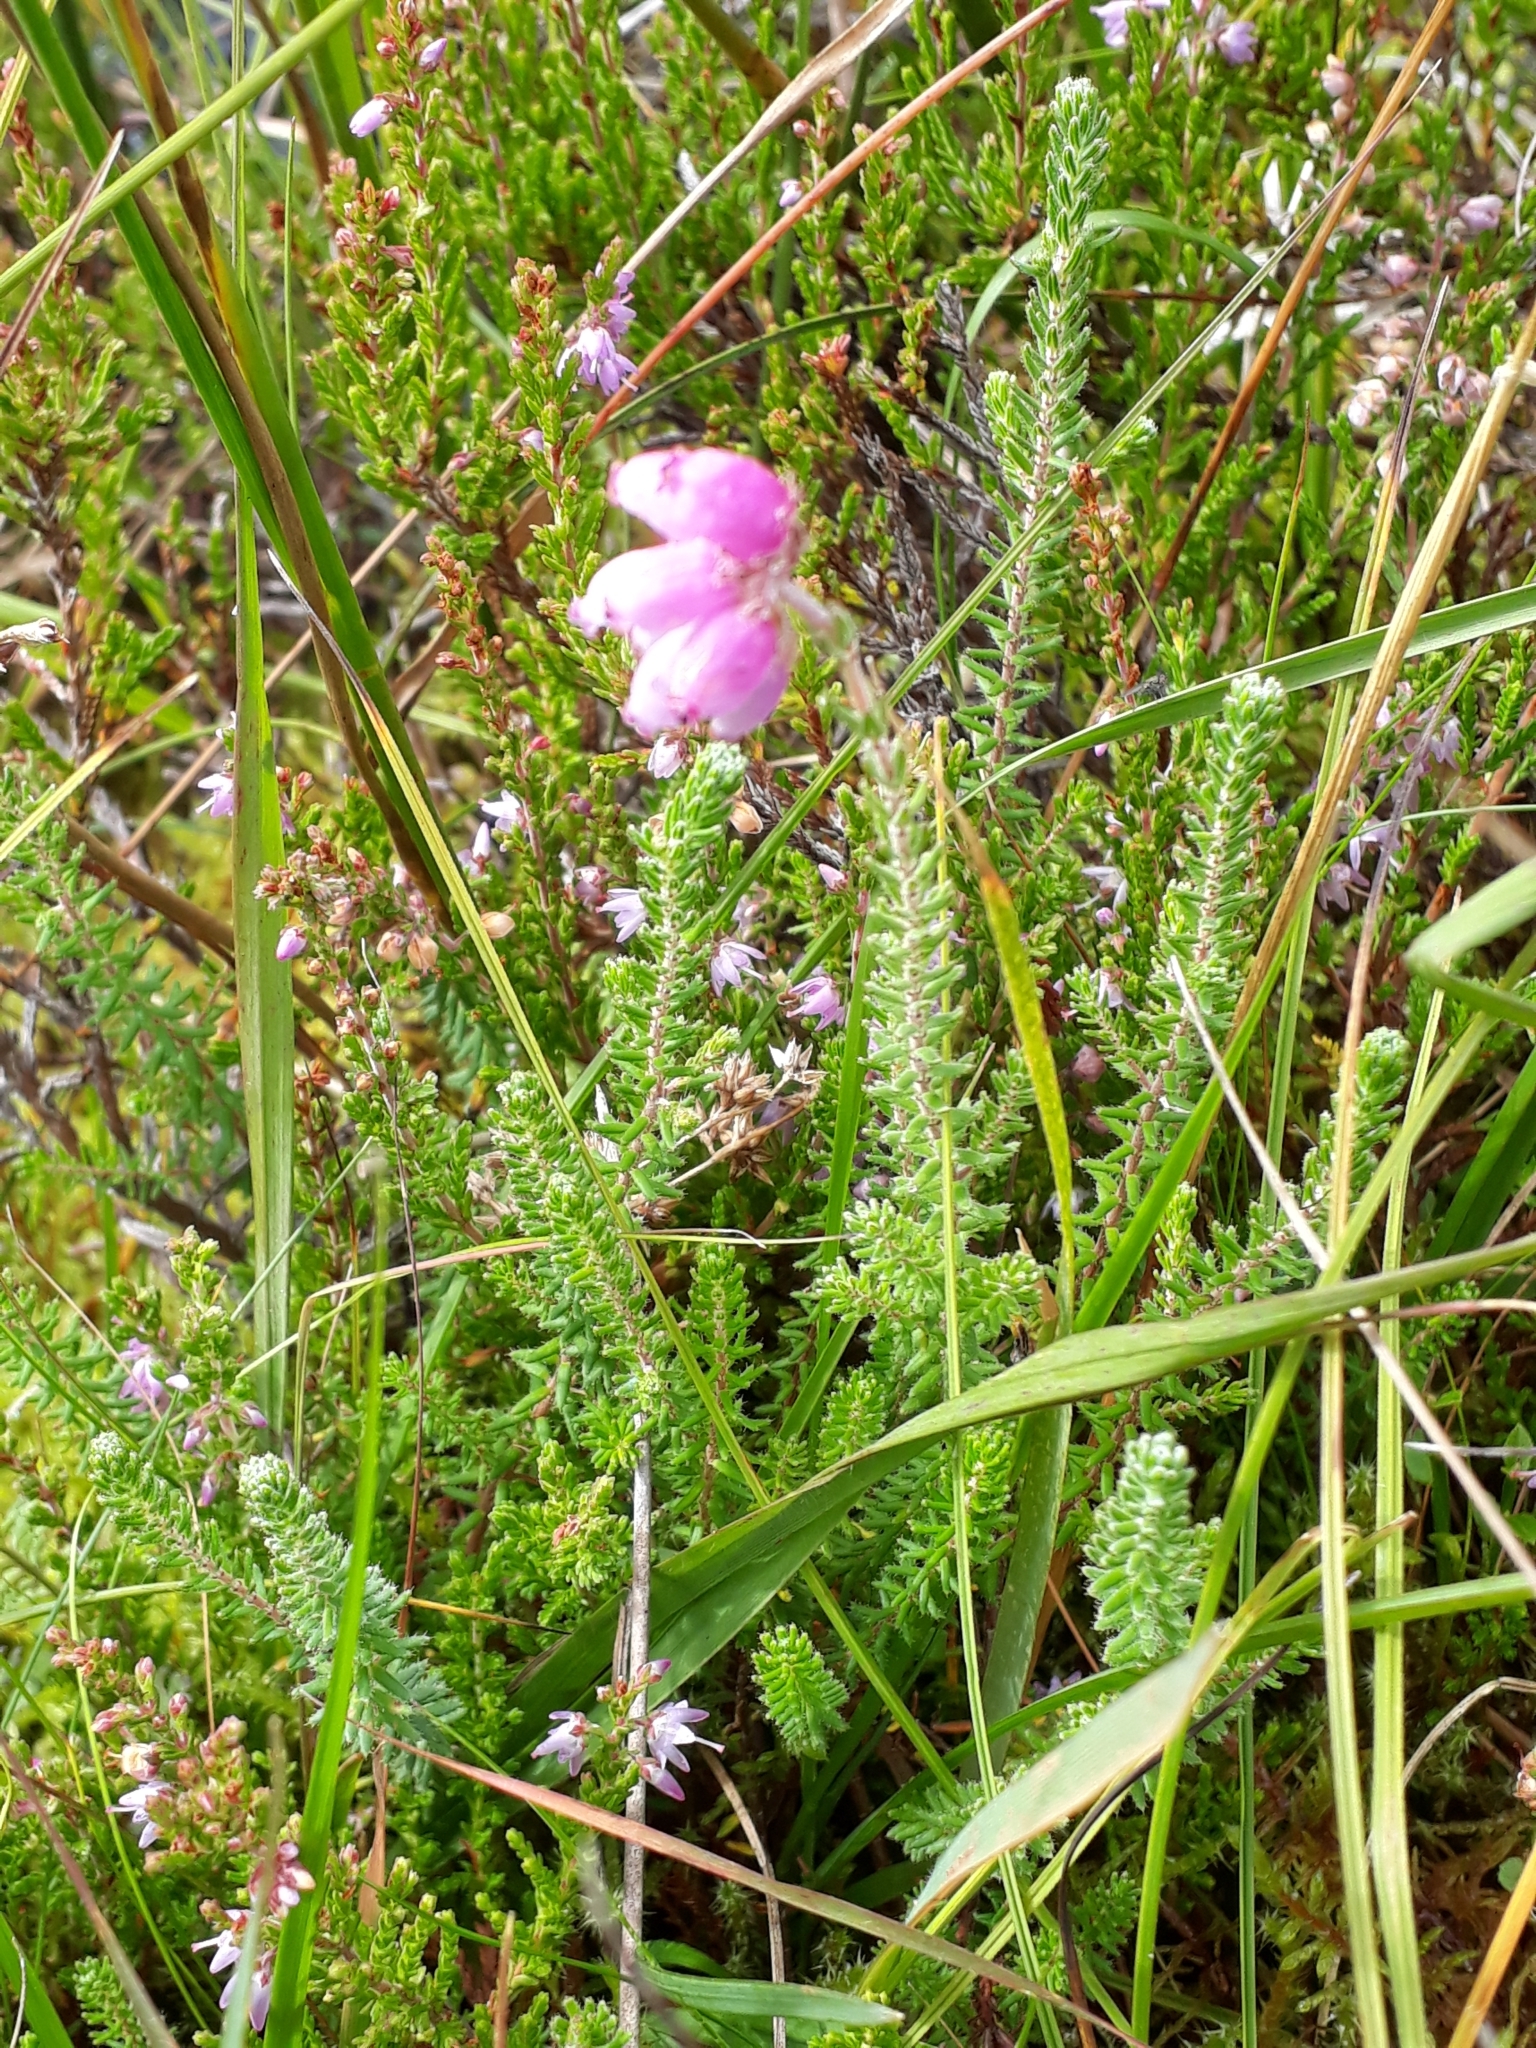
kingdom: Plantae
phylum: Tracheophyta
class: Magnoliopsida
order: Ericales
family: Ericaceae
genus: Erica
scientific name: Erica tetralix
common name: Cross-leaved heath
